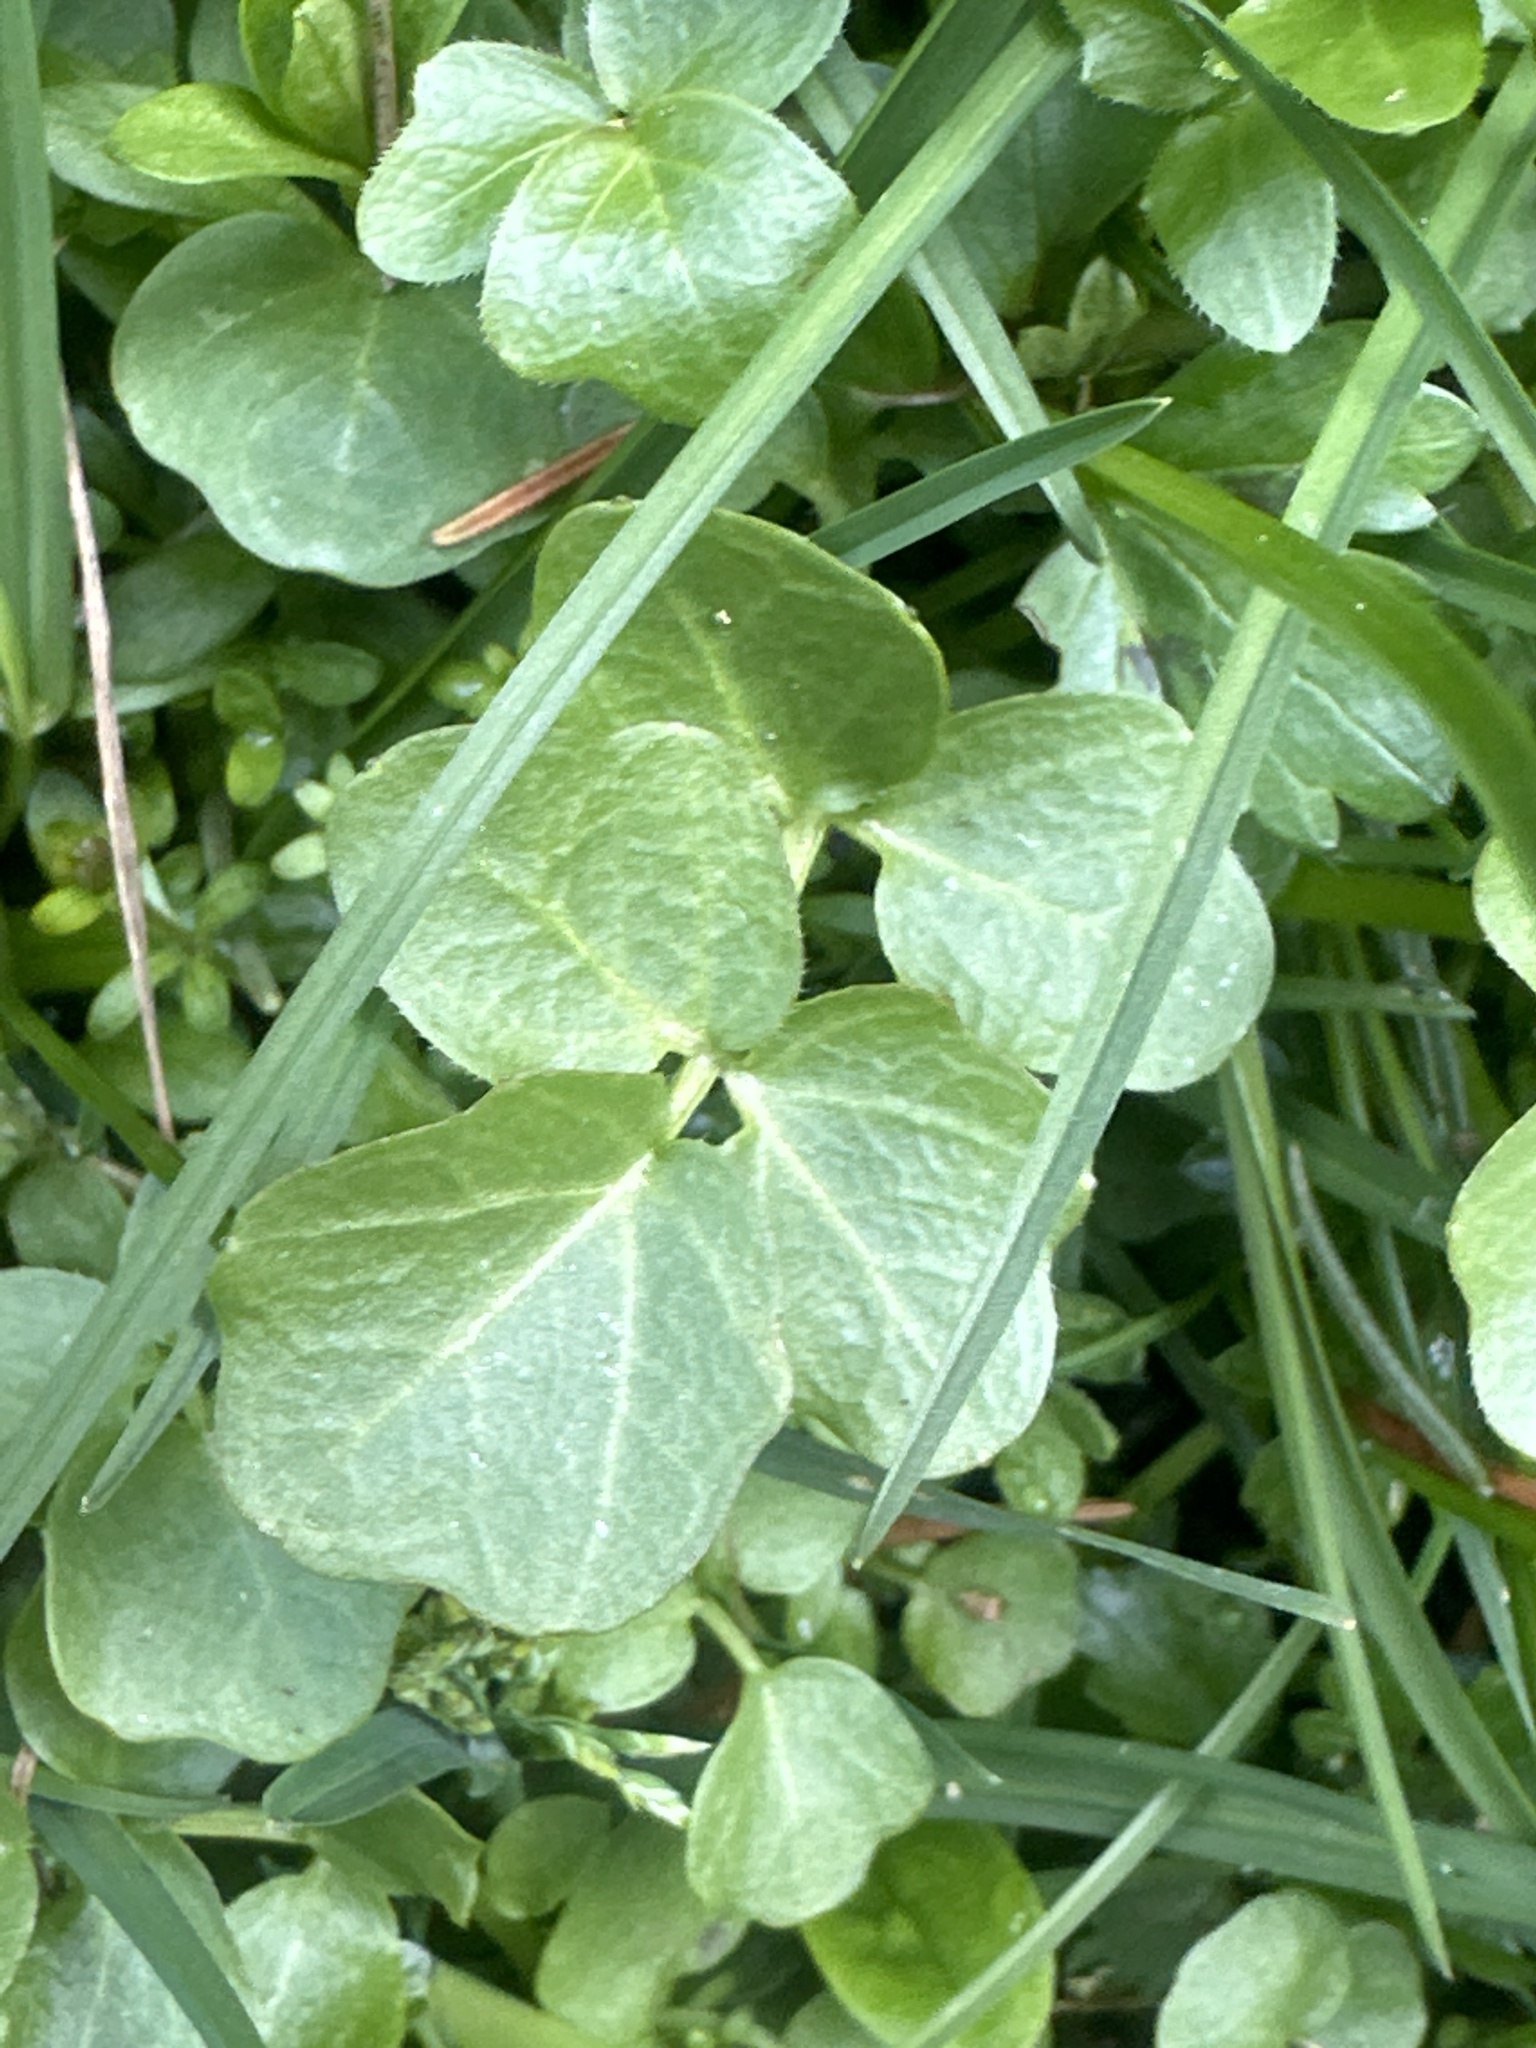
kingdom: Plantae
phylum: Tracheophyta
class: Magnoliopsida
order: Brassicales
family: Brassicaceae
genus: Cardamine
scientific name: Cardamine amara
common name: Large bitter-cress
